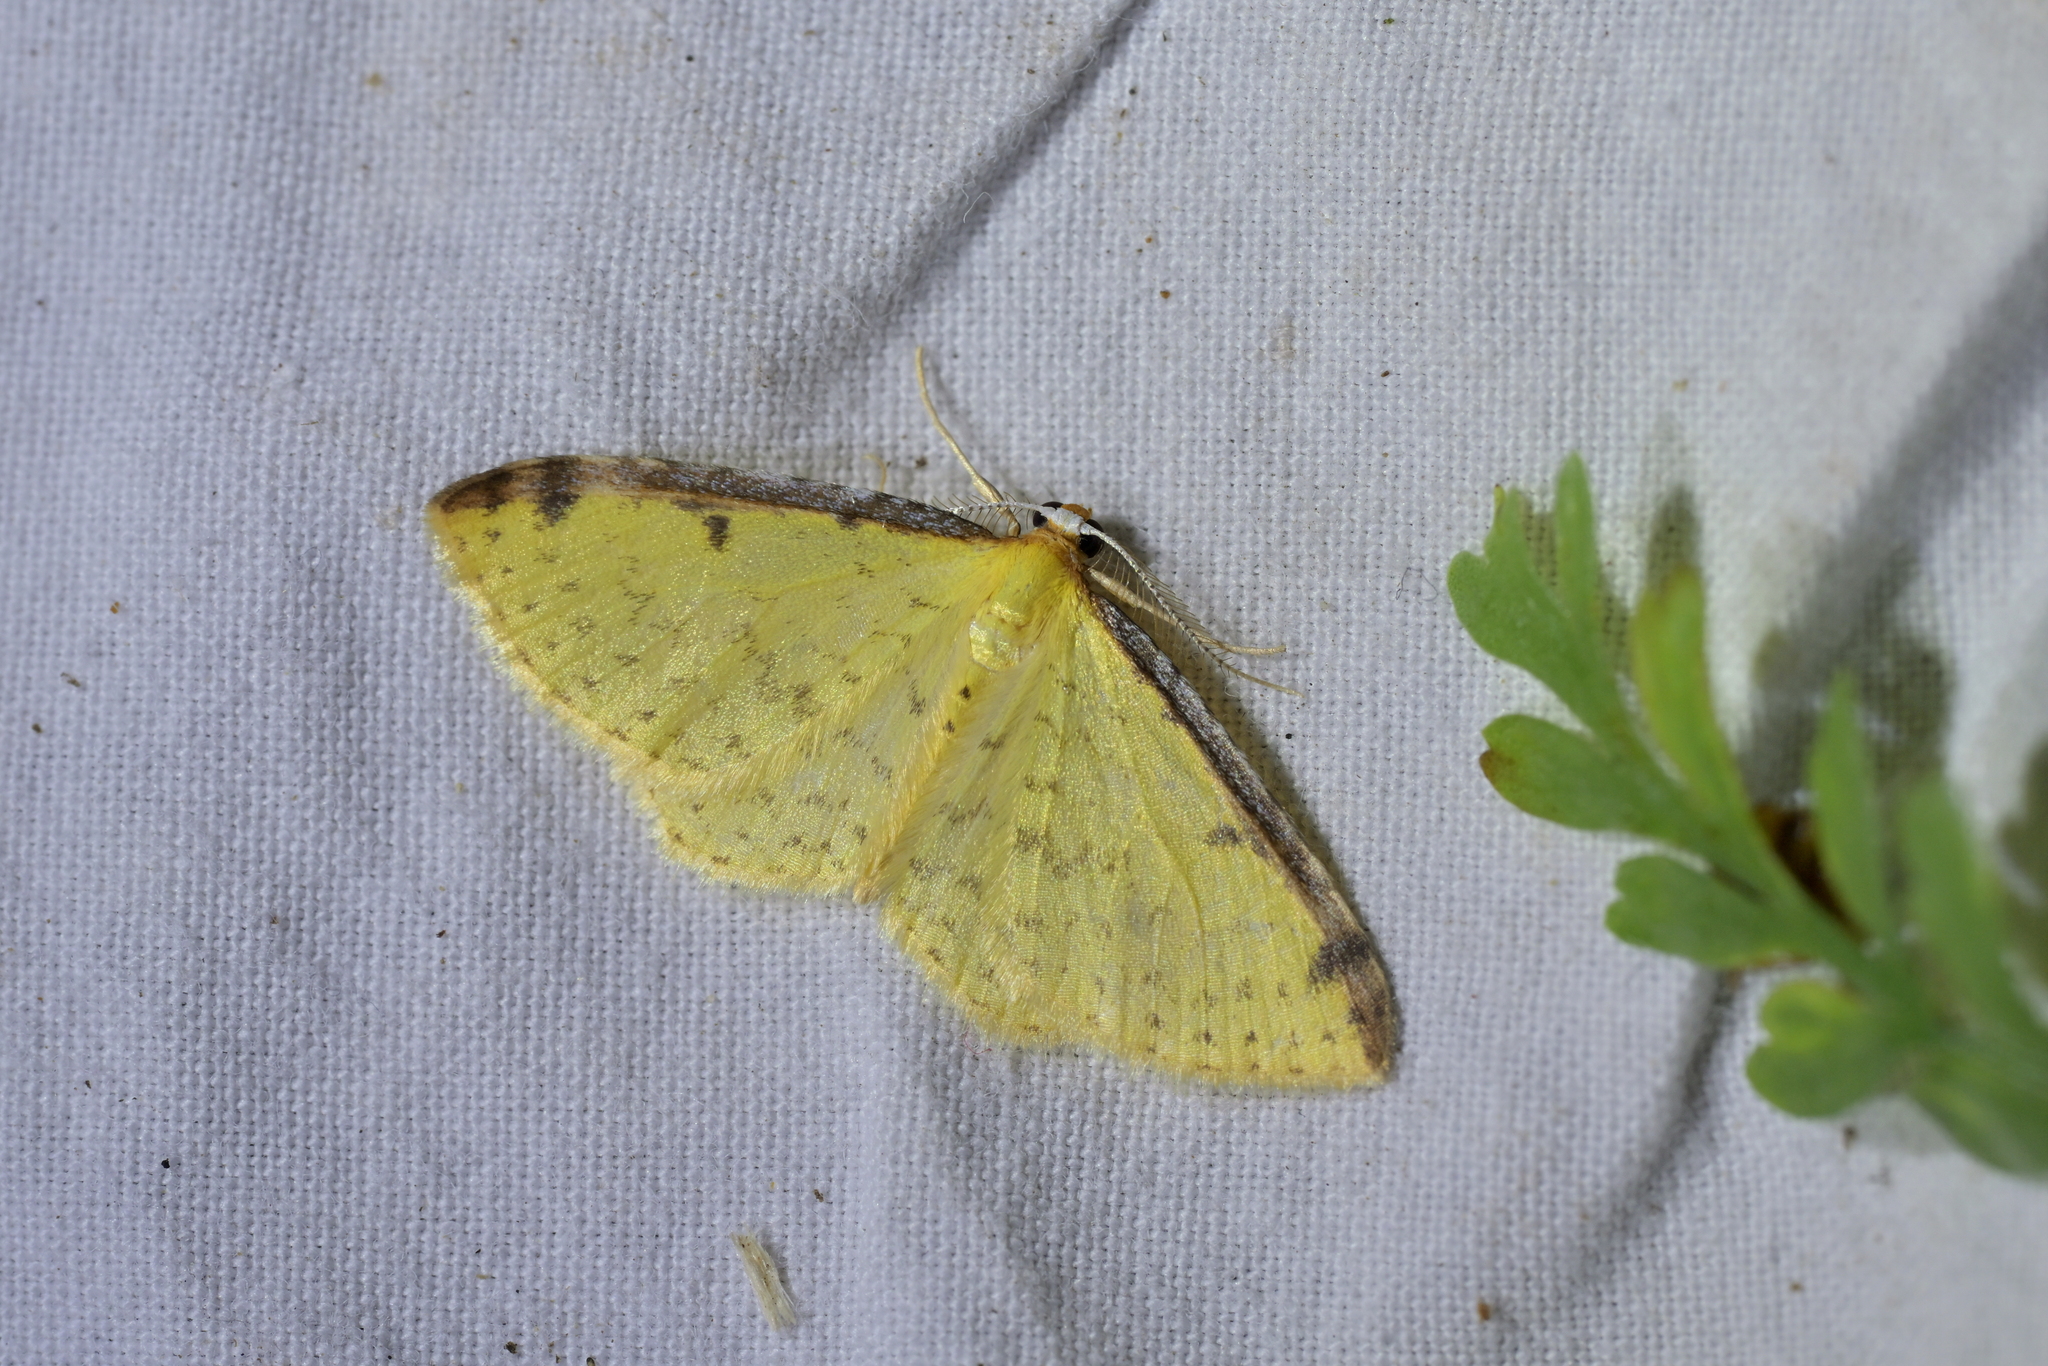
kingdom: Animalia
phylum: Arthropoda
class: Insecta
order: Lepidoptera
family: Geometridae
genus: Epiphryne
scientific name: Epiphryne undosata
